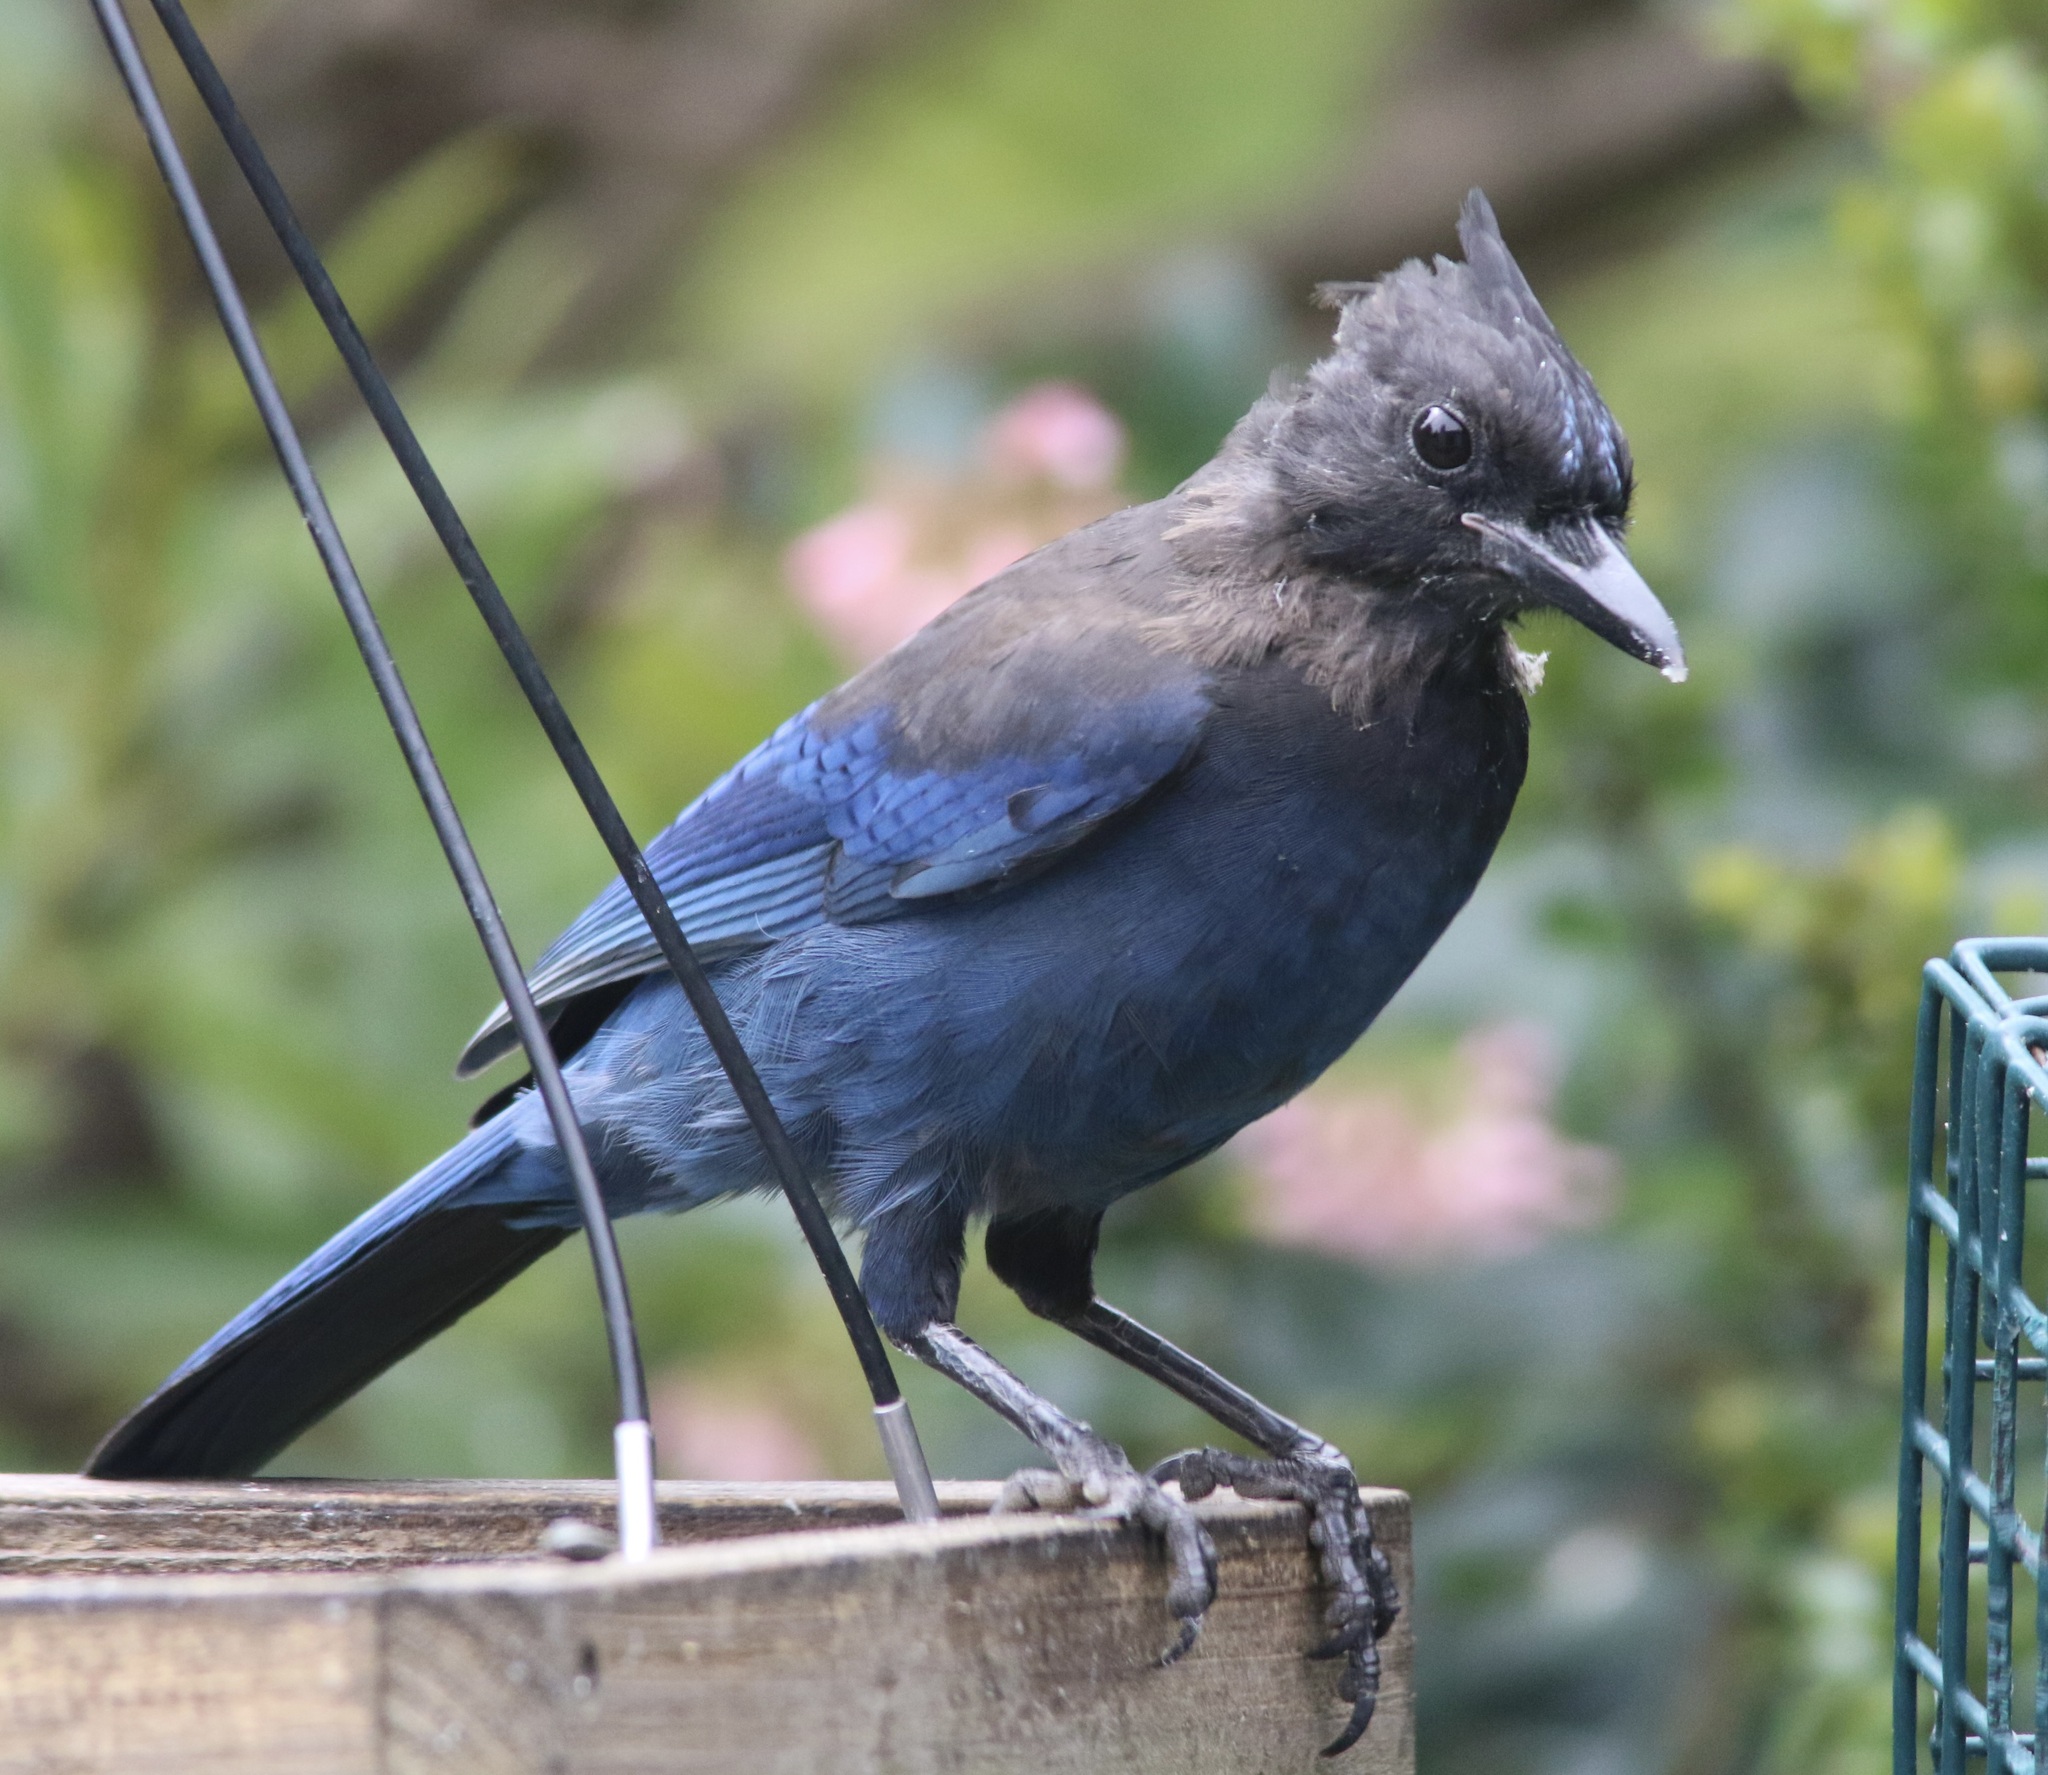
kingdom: Animalia
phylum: Chordata
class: Aves
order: Passeriformes
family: Corvidae
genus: Cyanocitta
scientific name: Cyanocitta stelleri
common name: Steller's jay
